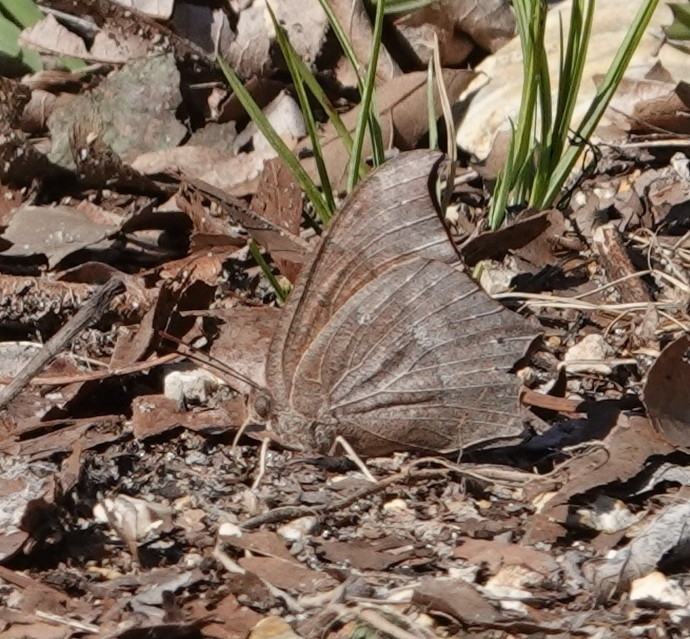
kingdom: Animalia
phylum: Arthropoda
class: Insecta
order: Lepidoptera
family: Nymphalidae
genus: Anaea
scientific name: Anaea andria
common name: Goatweed leafwing
